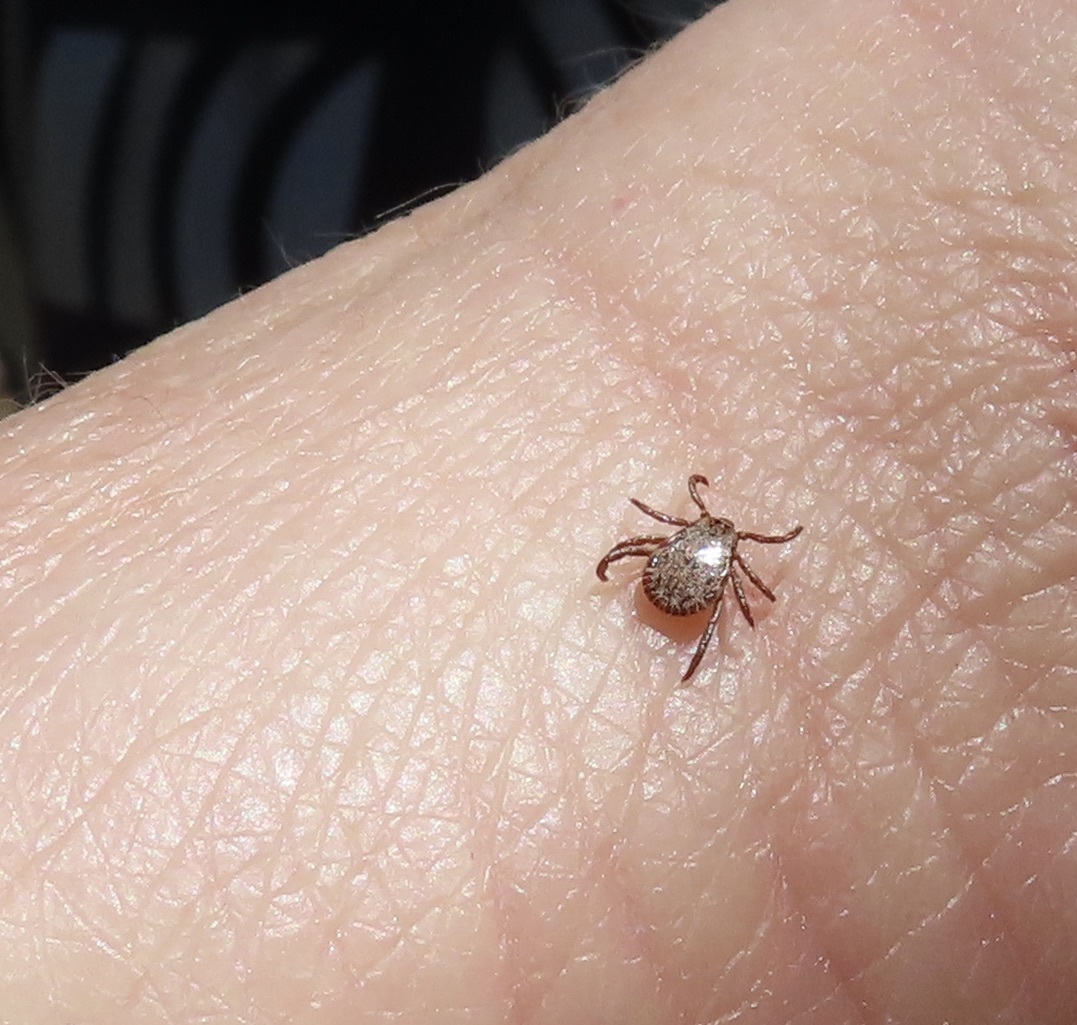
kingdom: Animalia
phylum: Arthropoda
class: Arachnida
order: Ixodida
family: Ixodidae
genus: Dermacentor
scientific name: Dermacentor occidentalis
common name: Net tick
